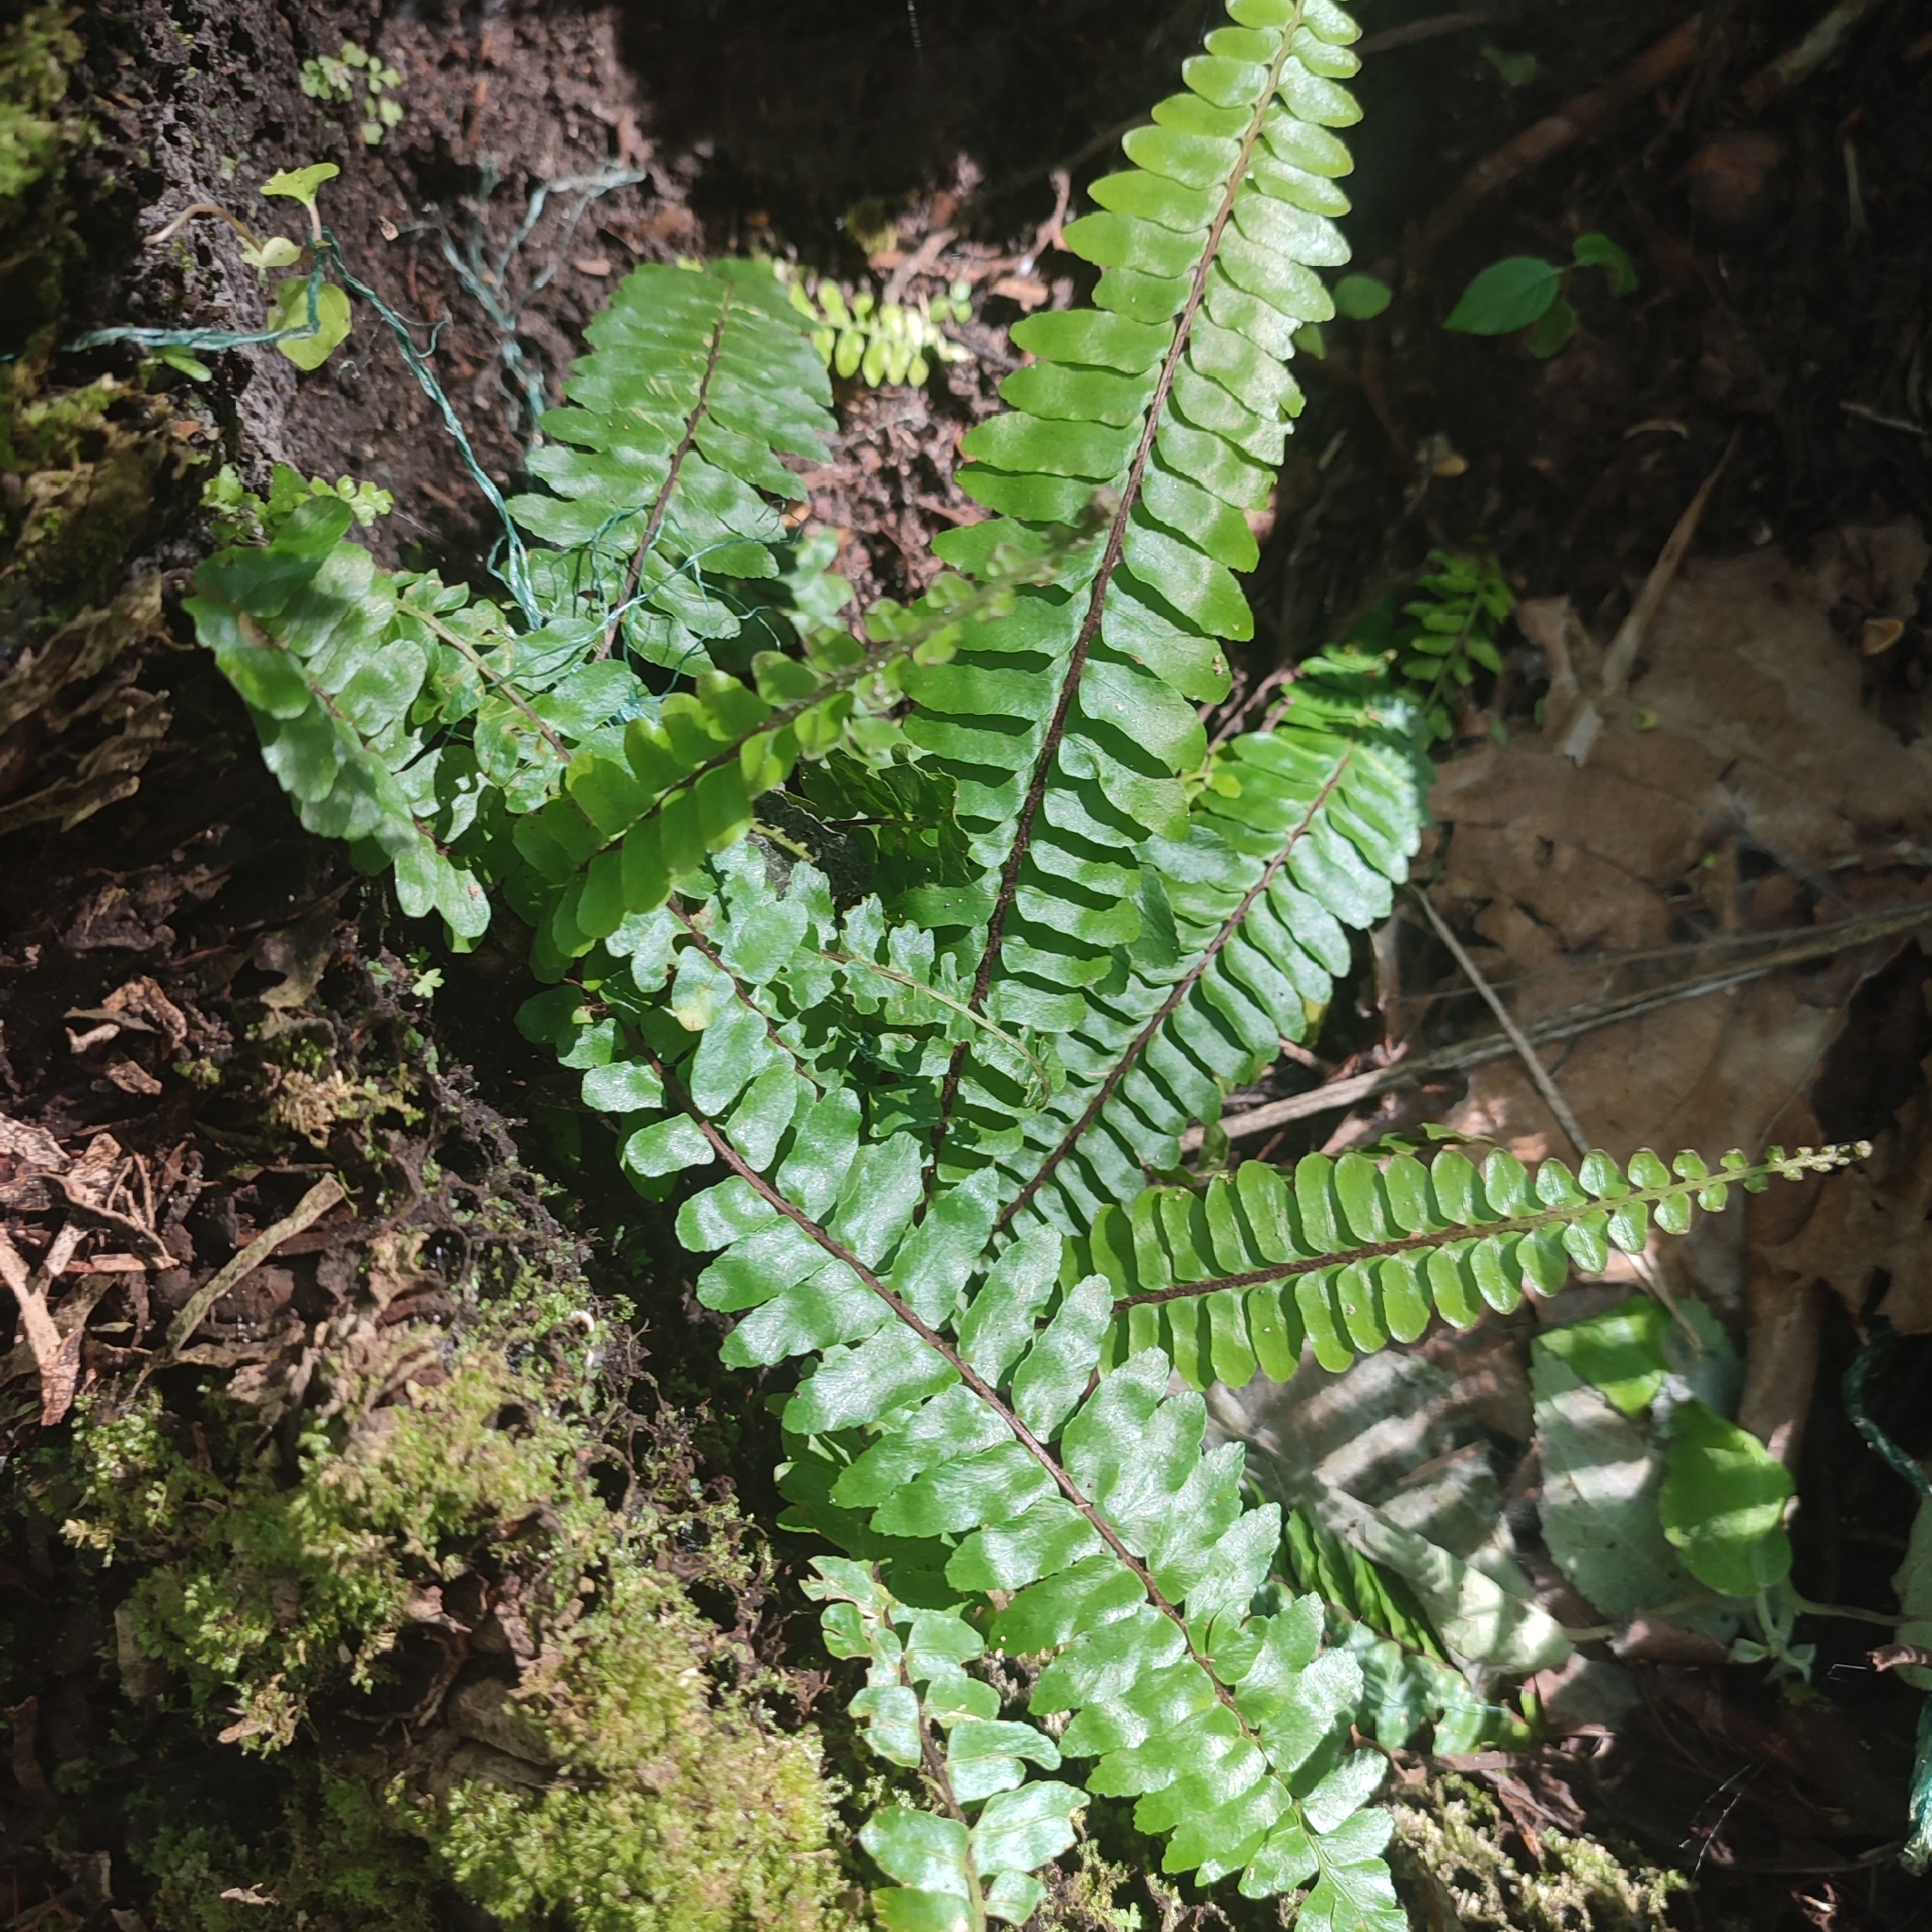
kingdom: Plantae
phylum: Tracheophyta
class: Polypodiopsida
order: Polypodiales
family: Aspleniaceae
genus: Asplenium
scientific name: Asplenium longissimum
